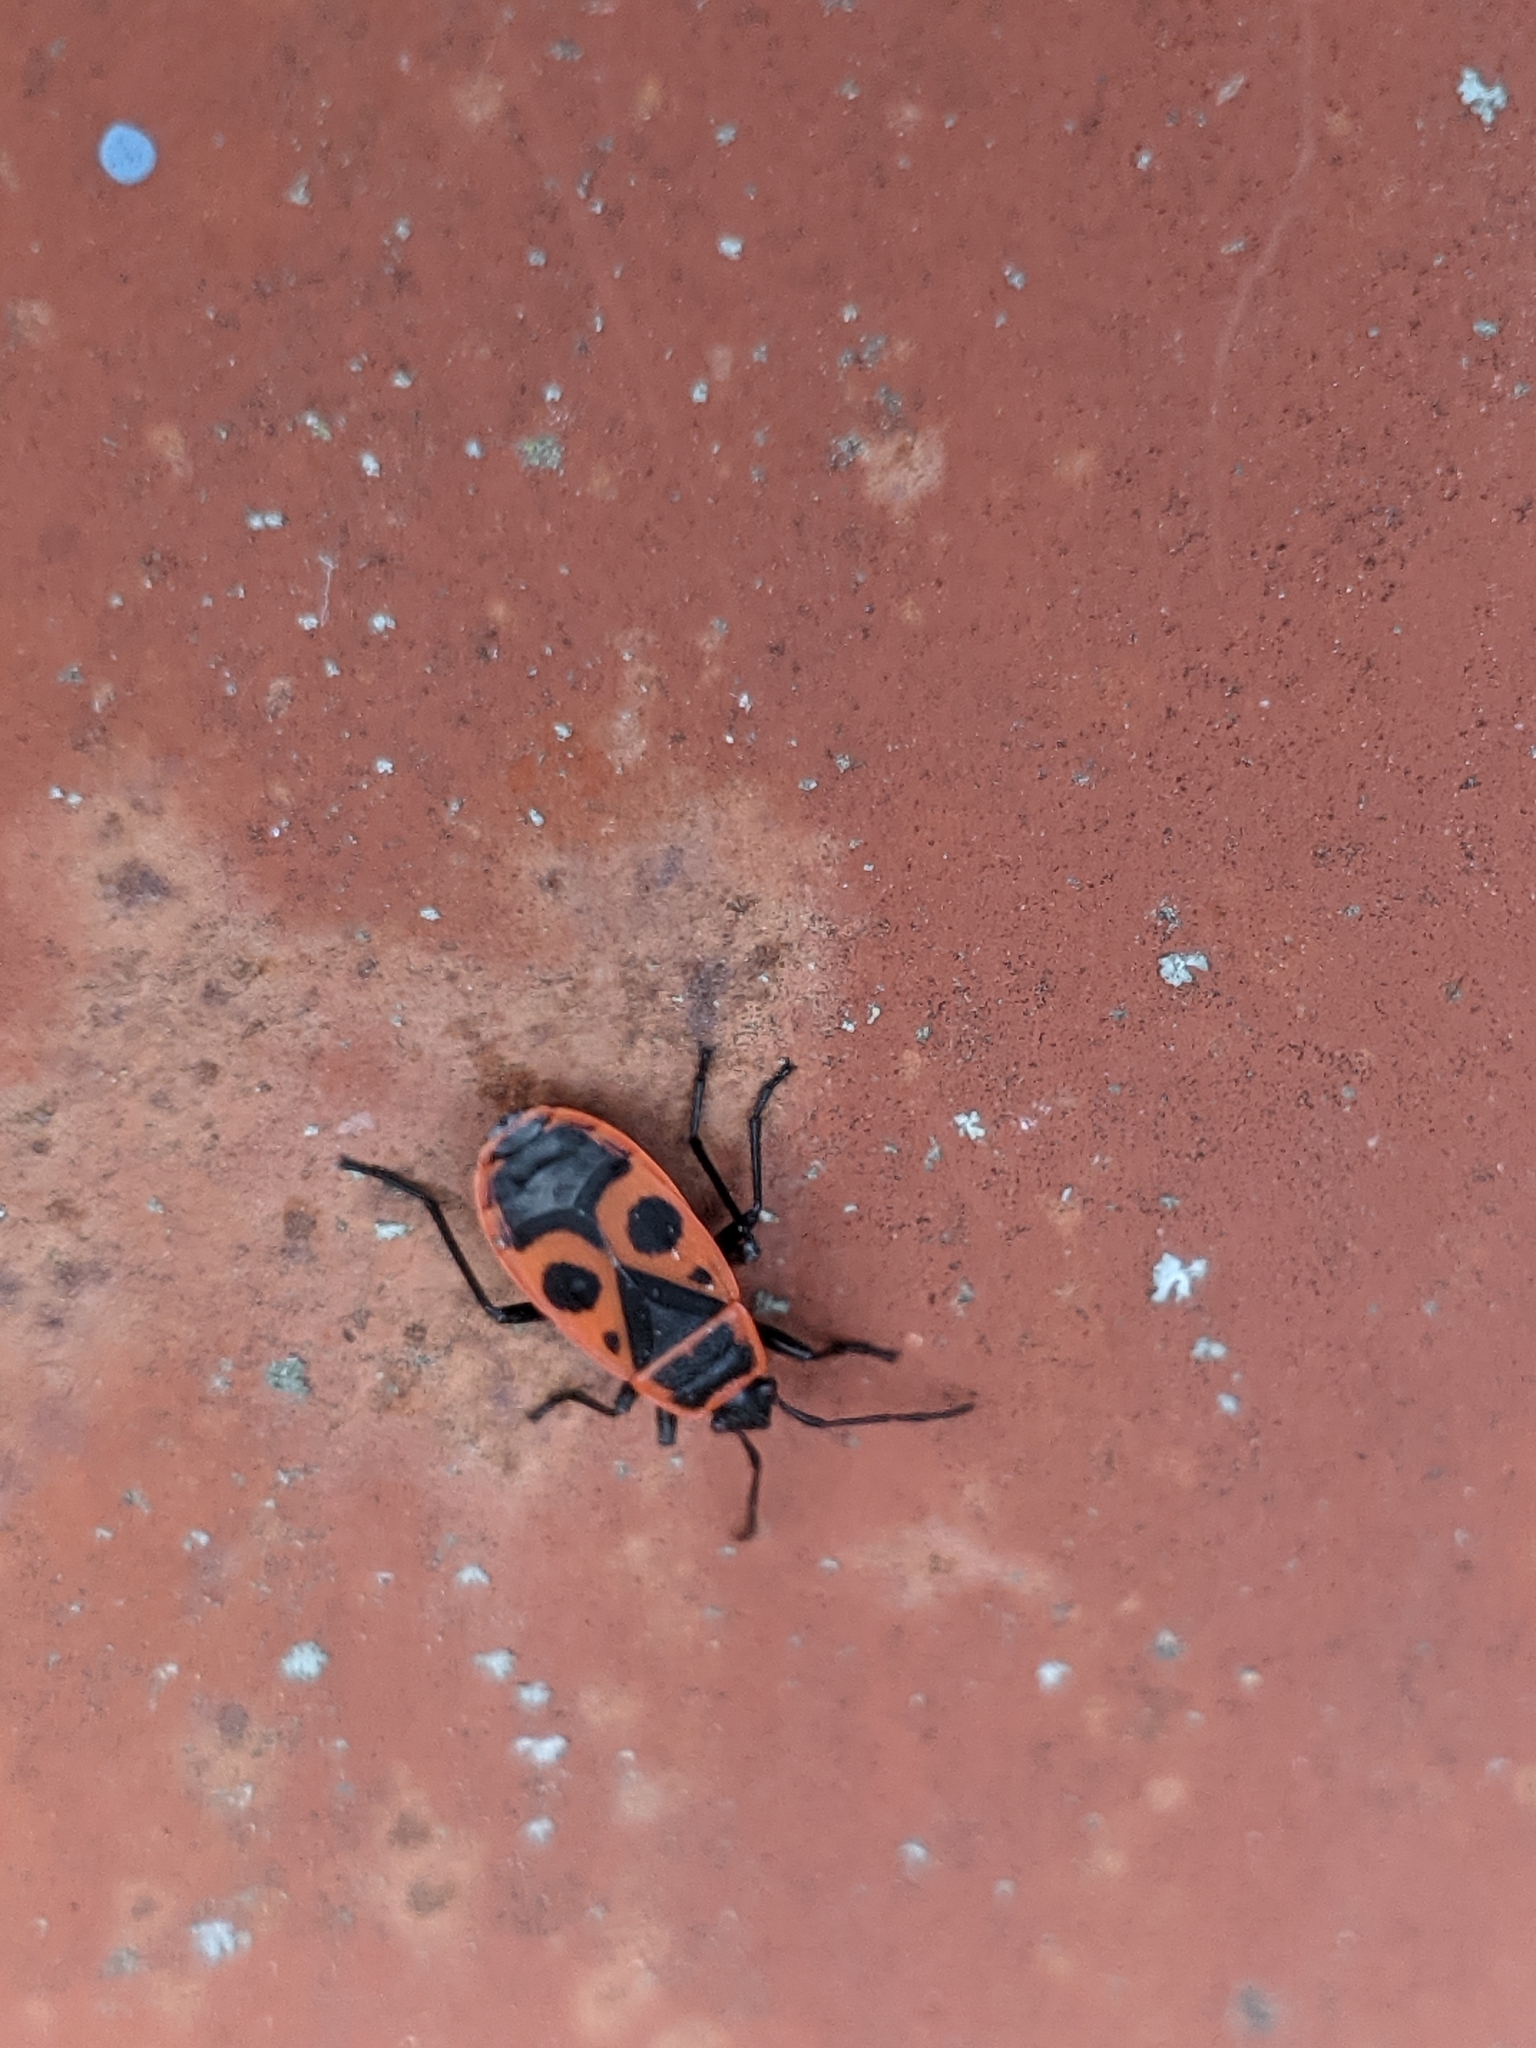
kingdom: Animalia
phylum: Arthropoda
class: Insecta
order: Hemiptera
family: Pyrrhocoridae
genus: Pyrrhocoris
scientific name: Pyrrhocoris apterus
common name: Firebug
